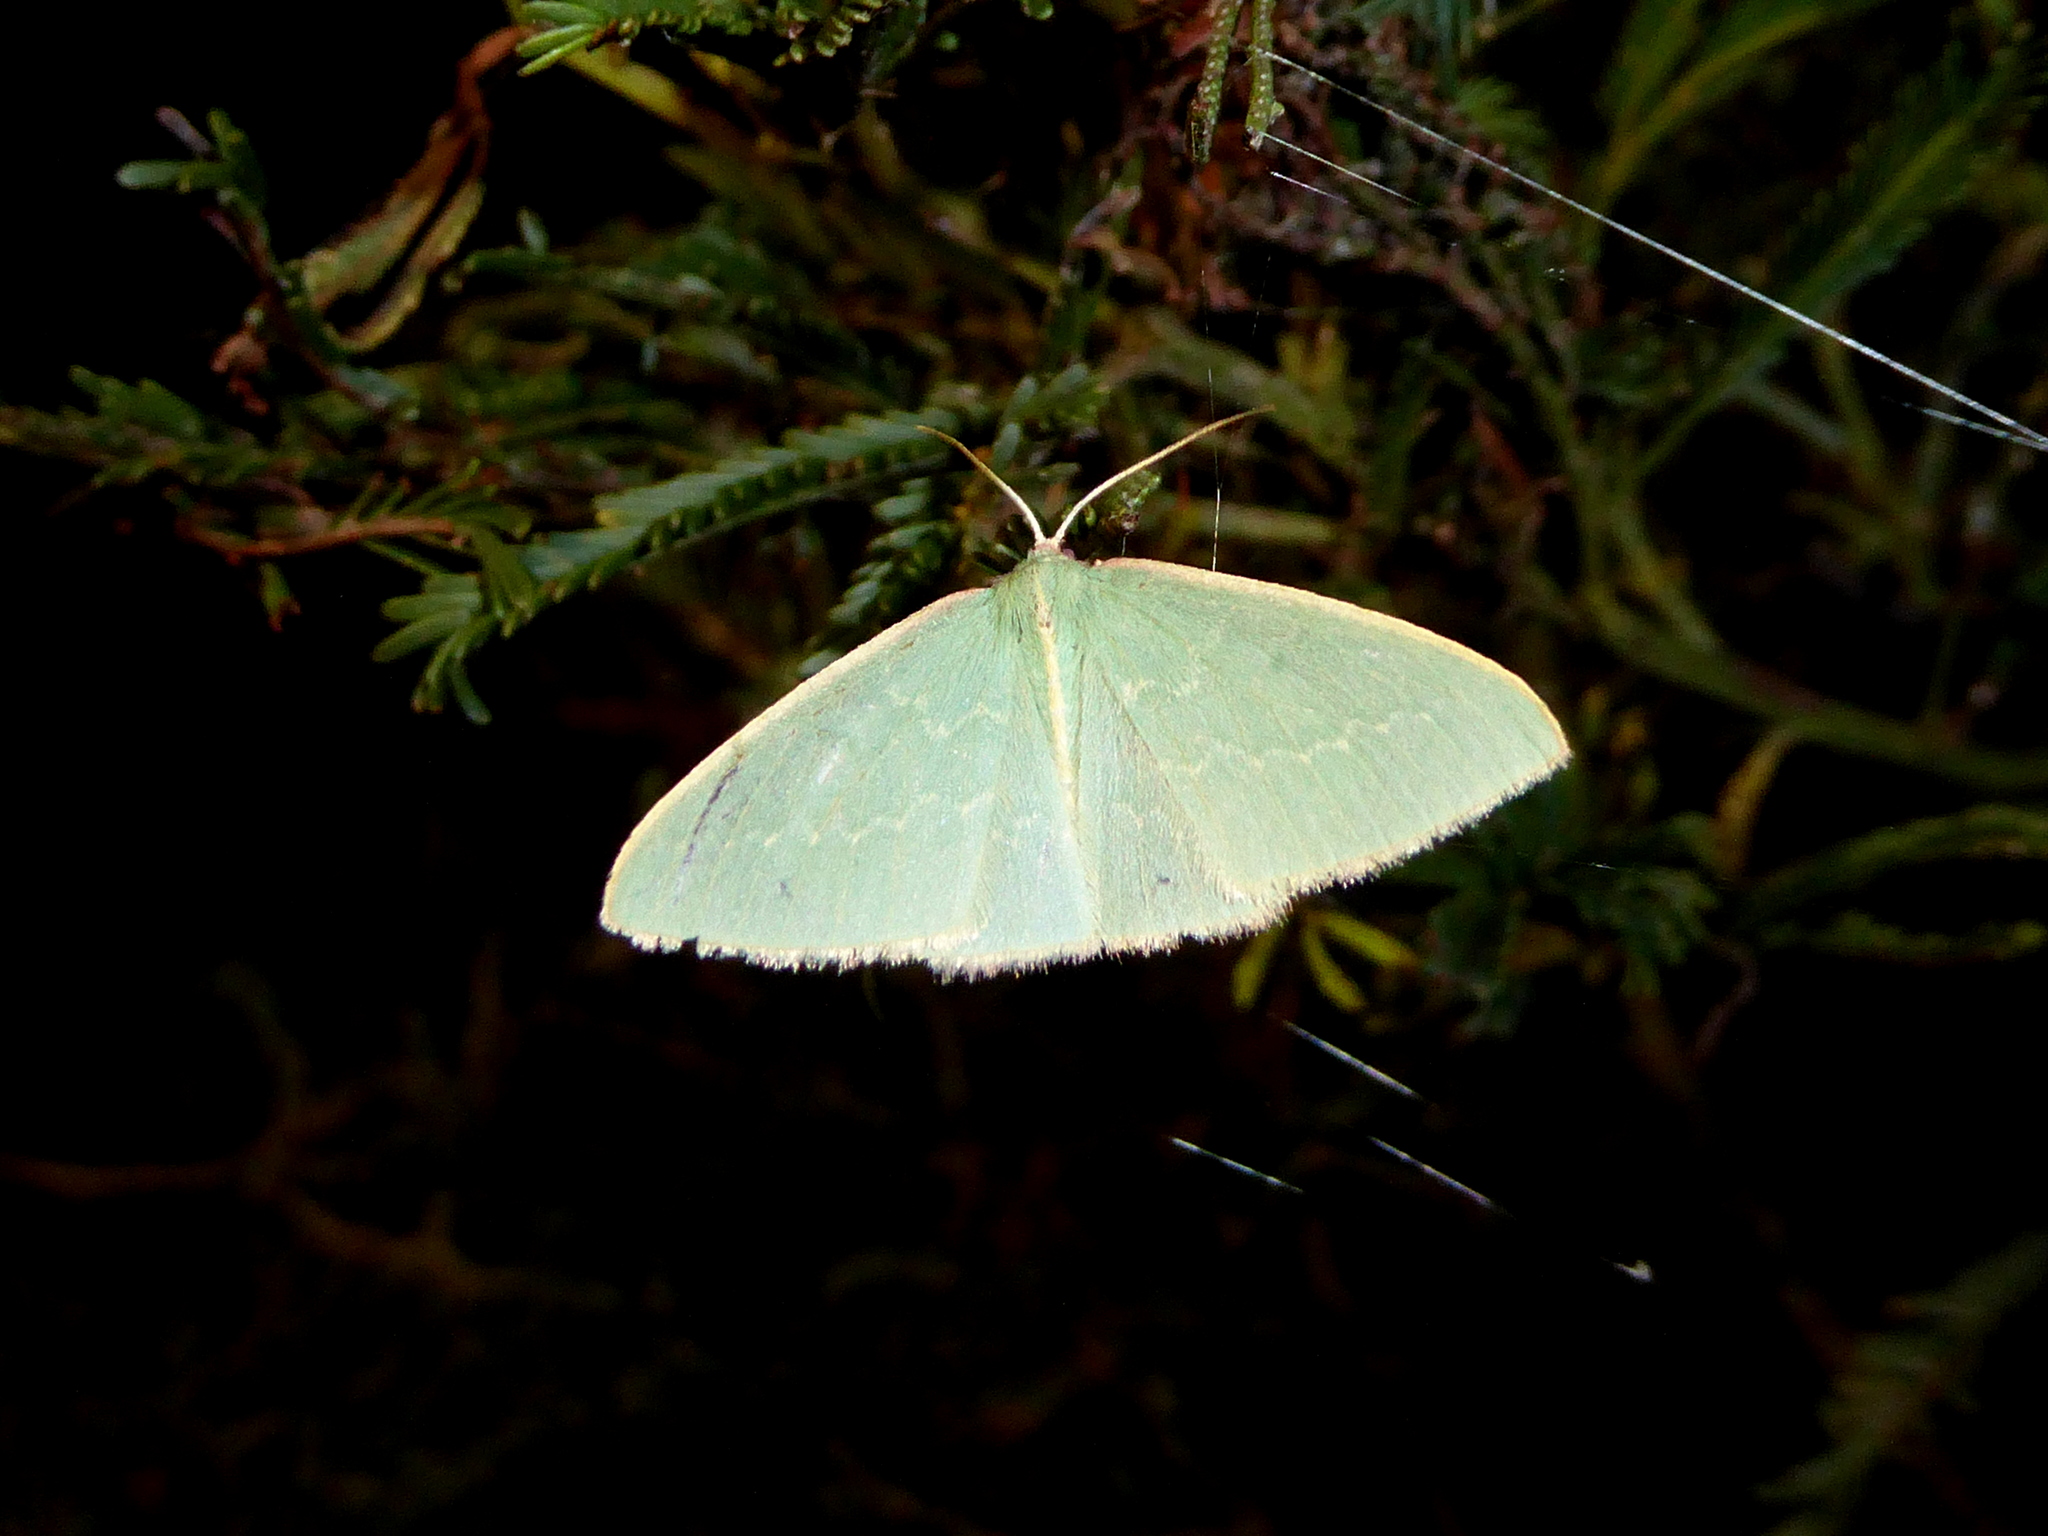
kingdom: Animalia
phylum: Arthropoda
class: Insecta
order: Lepidoptera
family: Geometridae
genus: Chlorocoma
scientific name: Chlorocoma melocrossa
